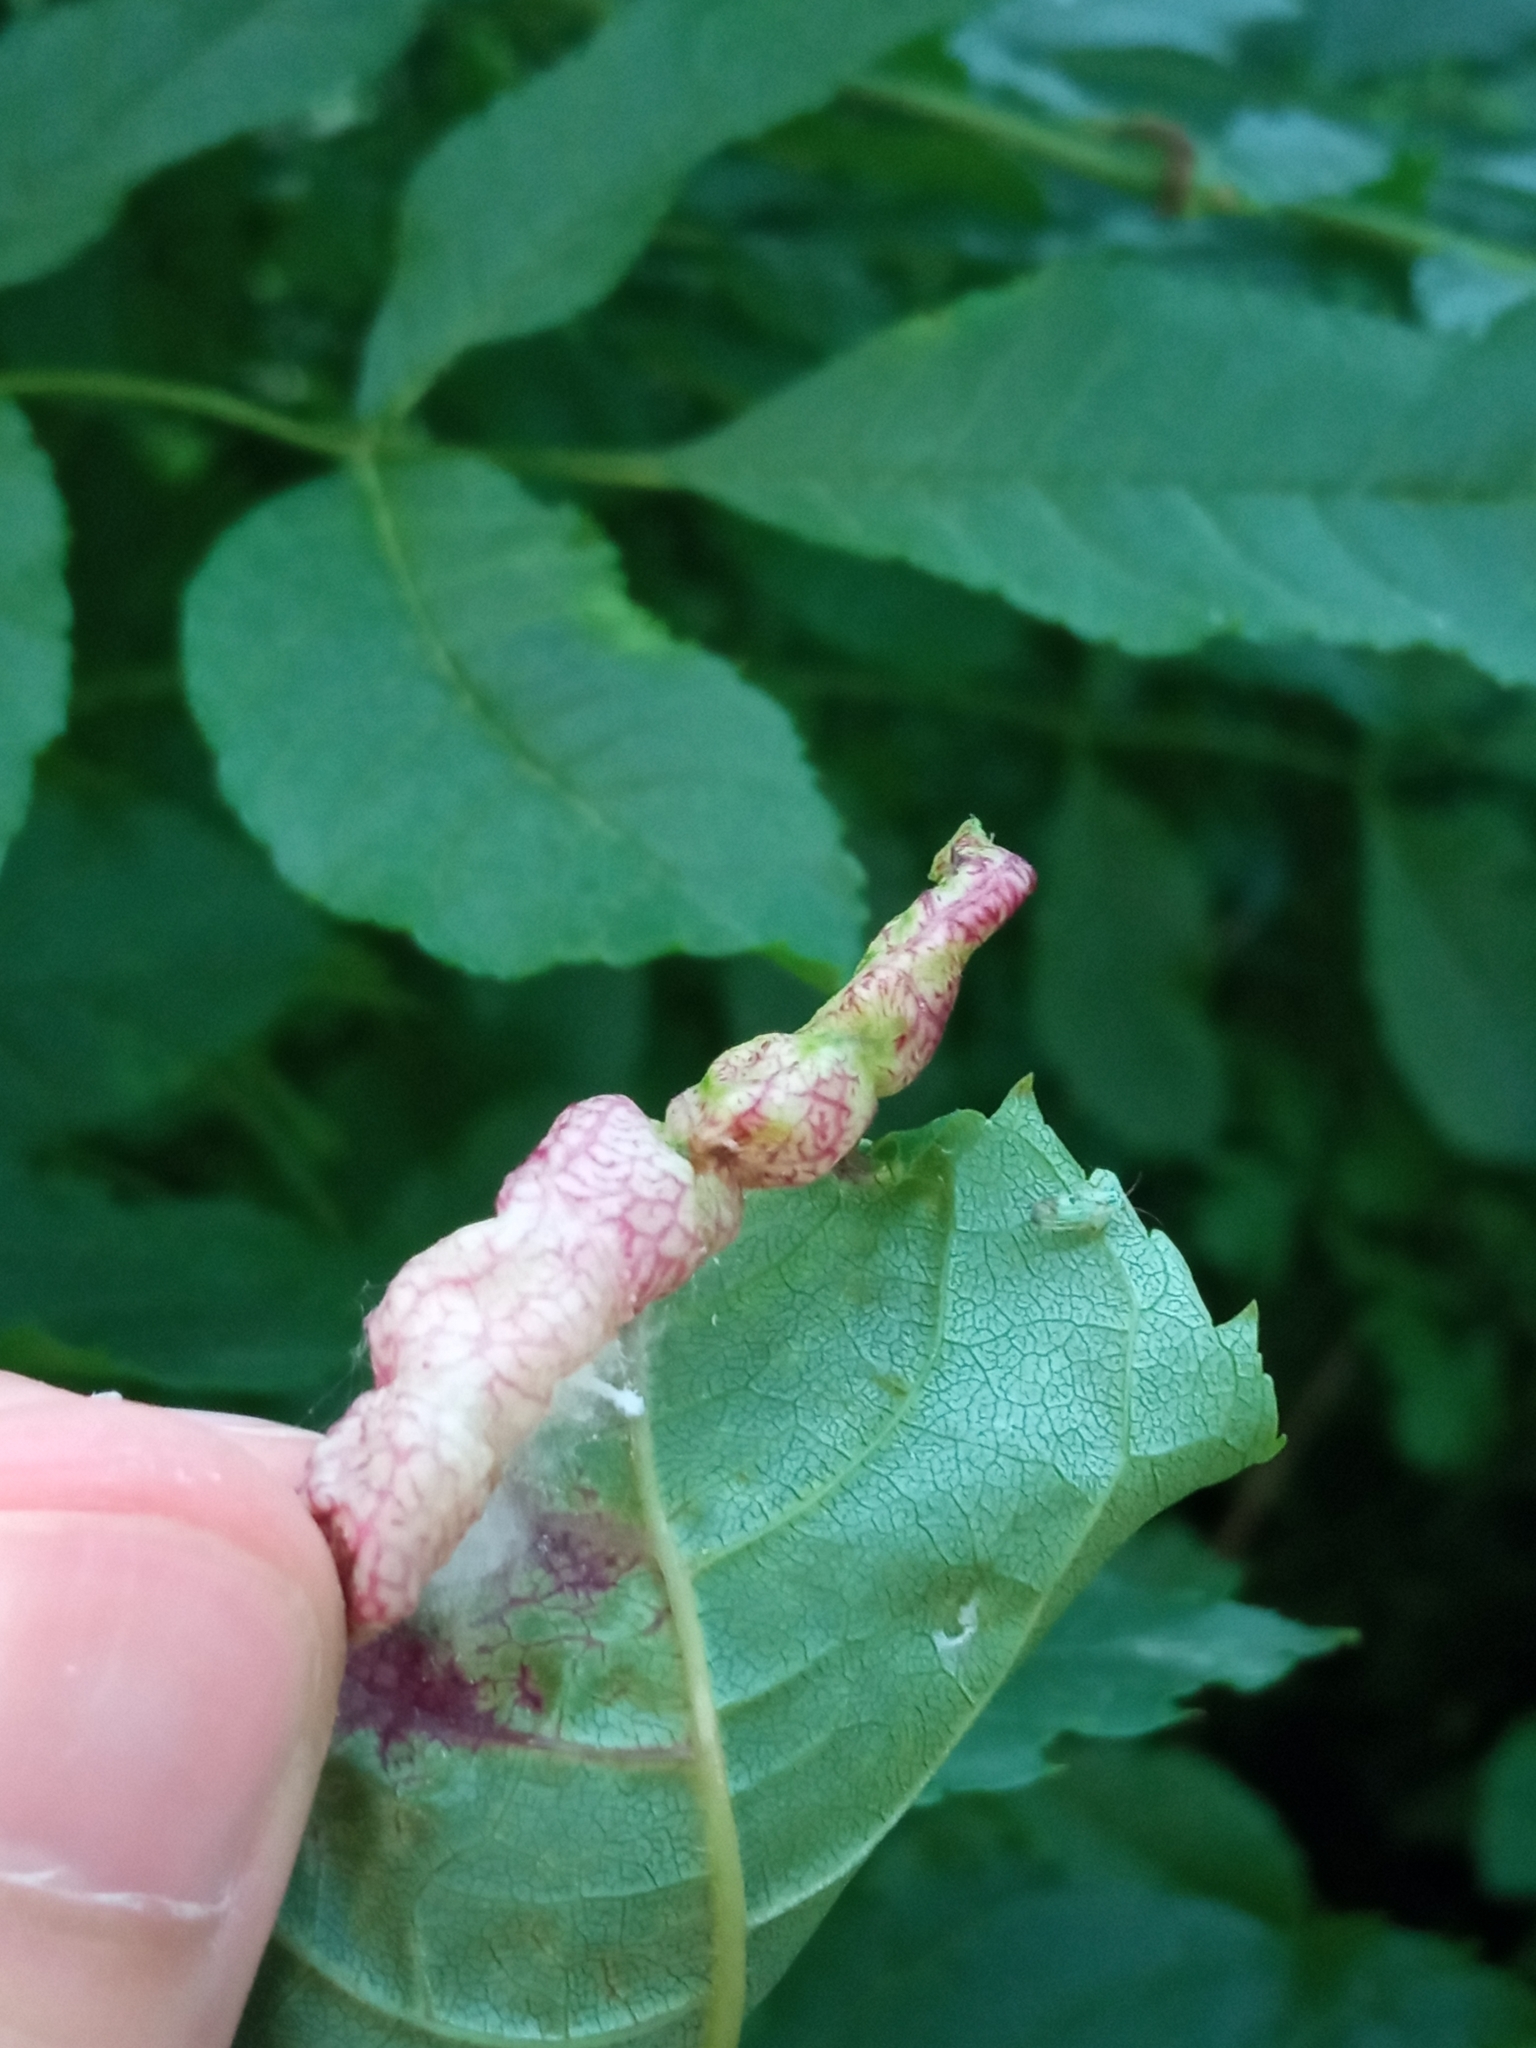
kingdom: Animalia
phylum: Arthropoda
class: Insecta
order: Hemiptera
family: Liviidae
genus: Psyllopsis
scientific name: Psyllopsis fraxini
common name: Jumping plant louse
